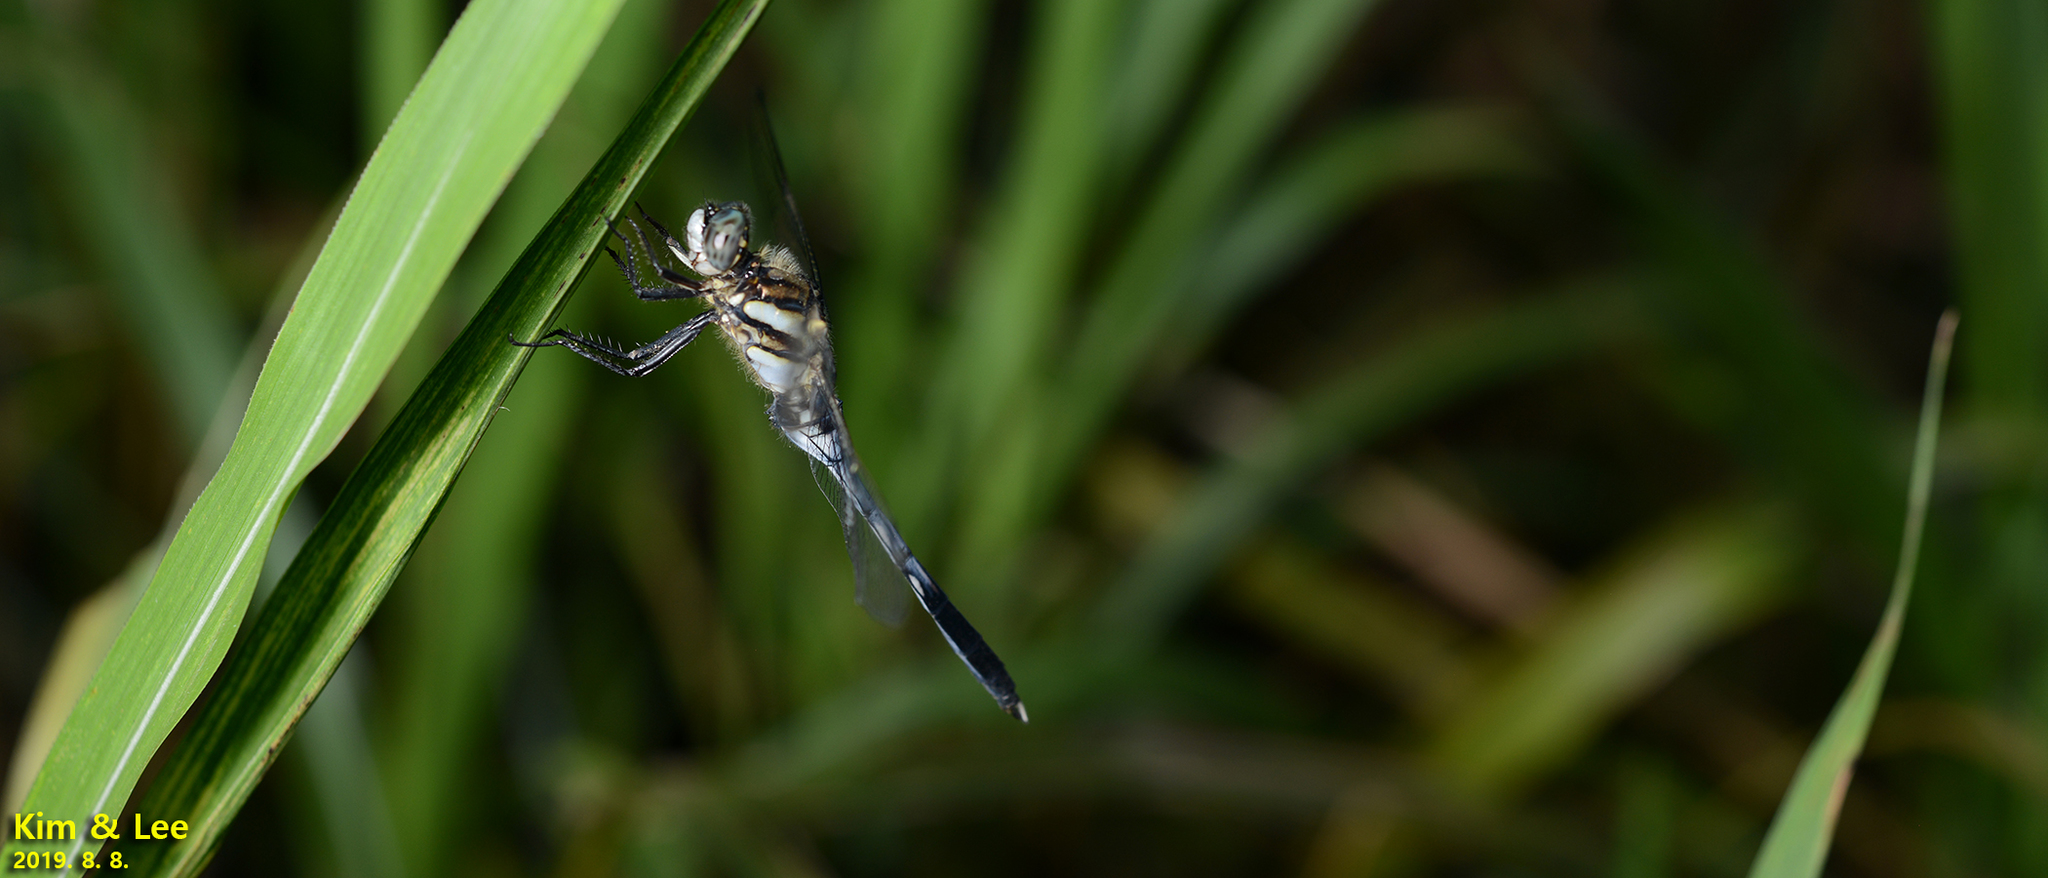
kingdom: Animalia
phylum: Arthropoda
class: Insecta
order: Odonata
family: Libellulidae
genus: Orthetrum
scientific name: Orthetrum albistylum
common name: White-tailed skimmer
